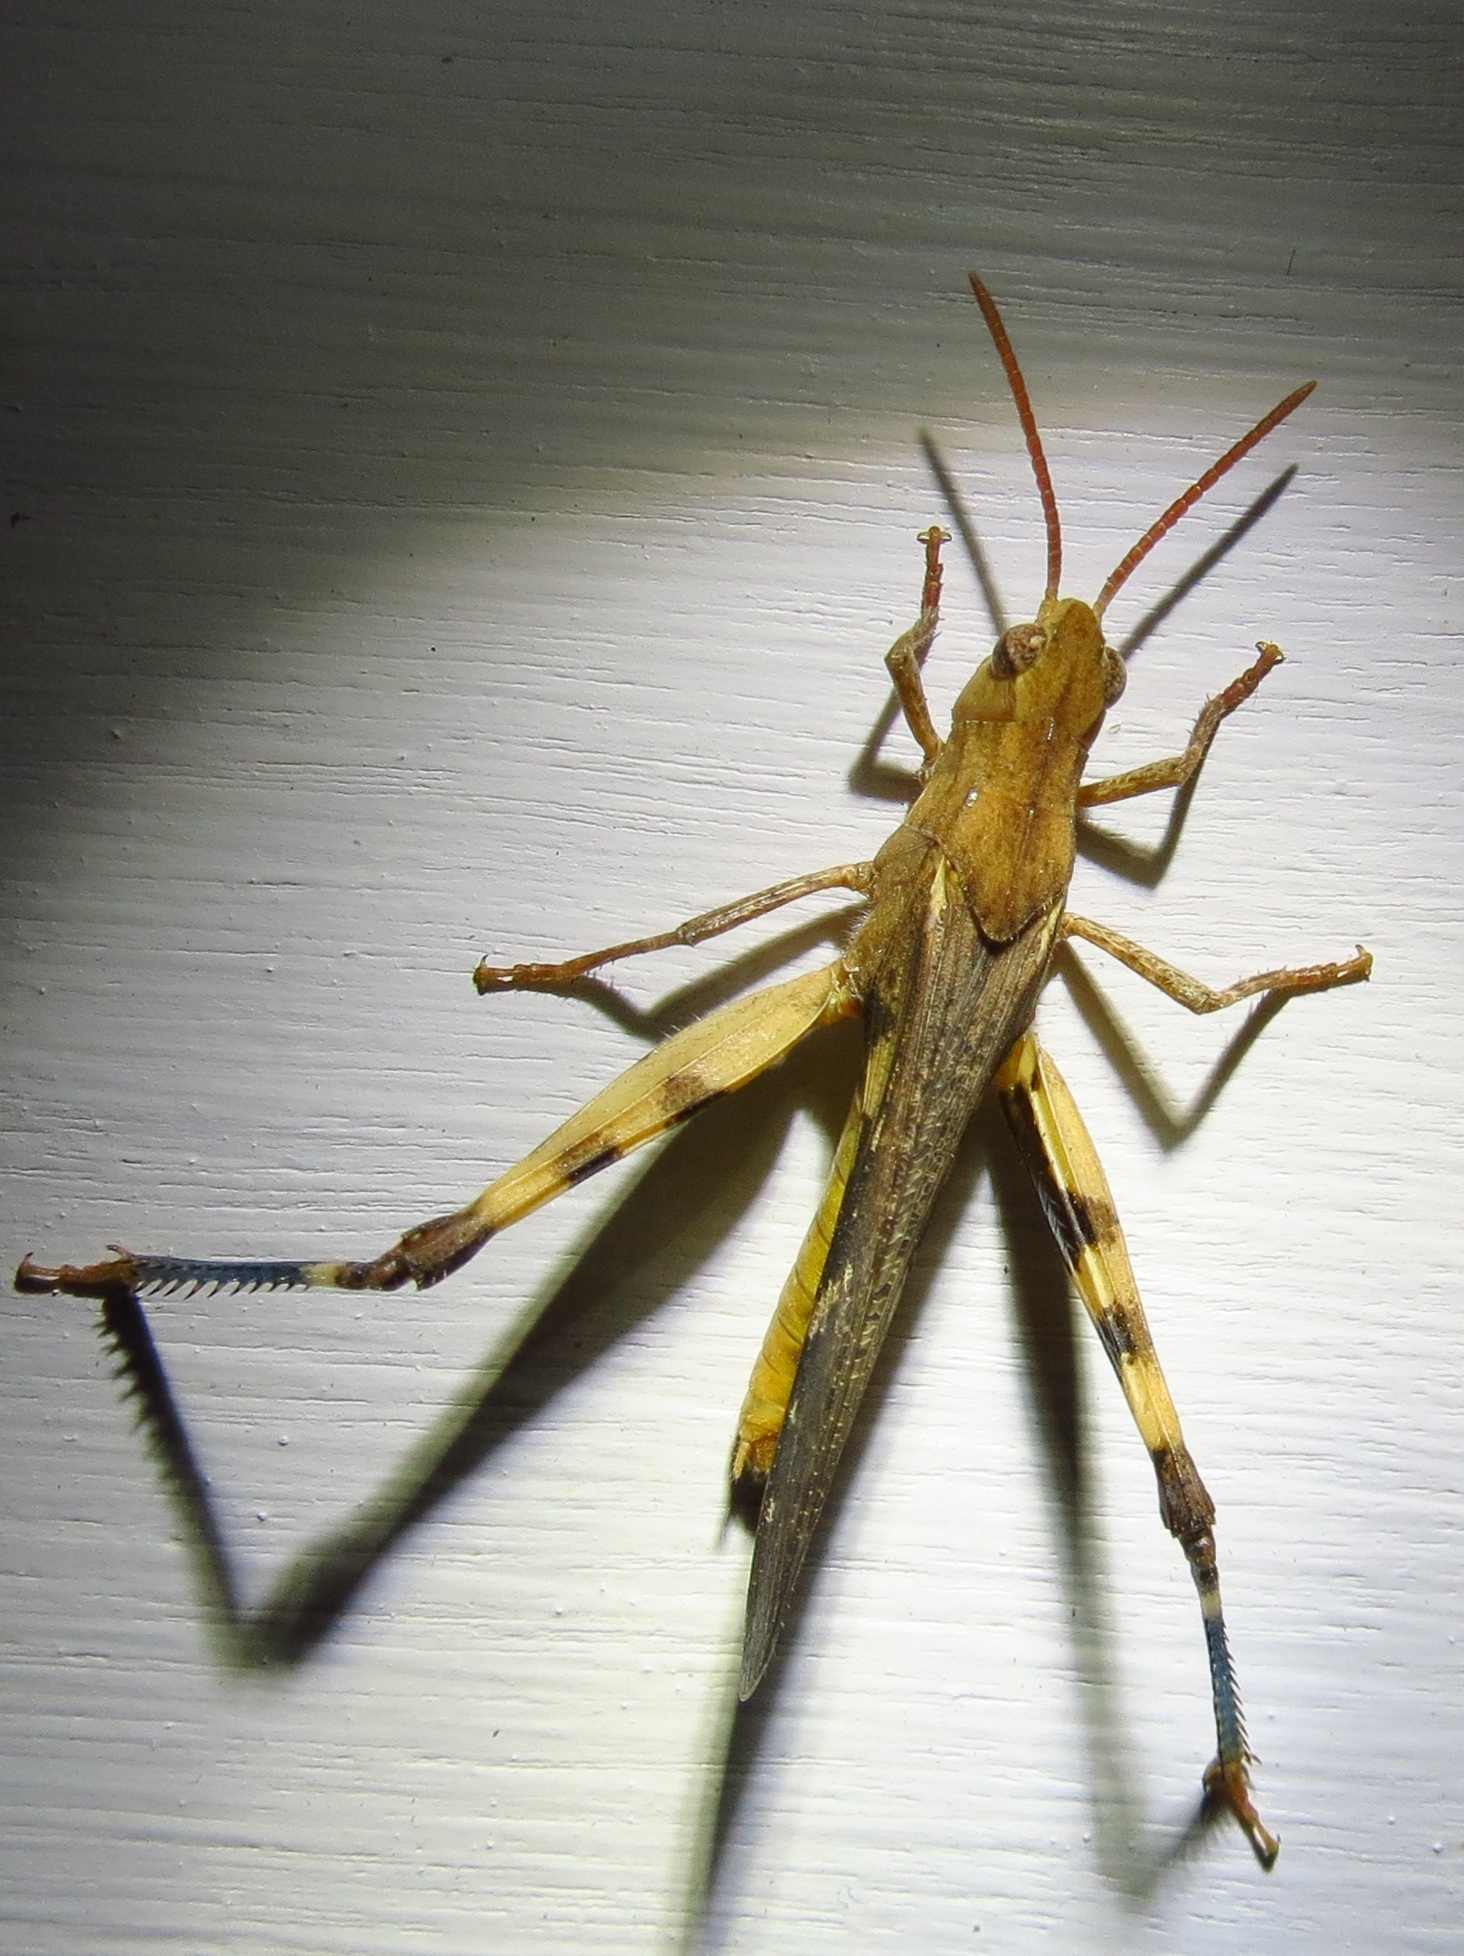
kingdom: Animalia
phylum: Arthropoda
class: Insecta
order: Orthoptera
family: Acrididae
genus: Chortophaga
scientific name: Chortophaga viridifasciata
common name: Green-striped grasshopper
